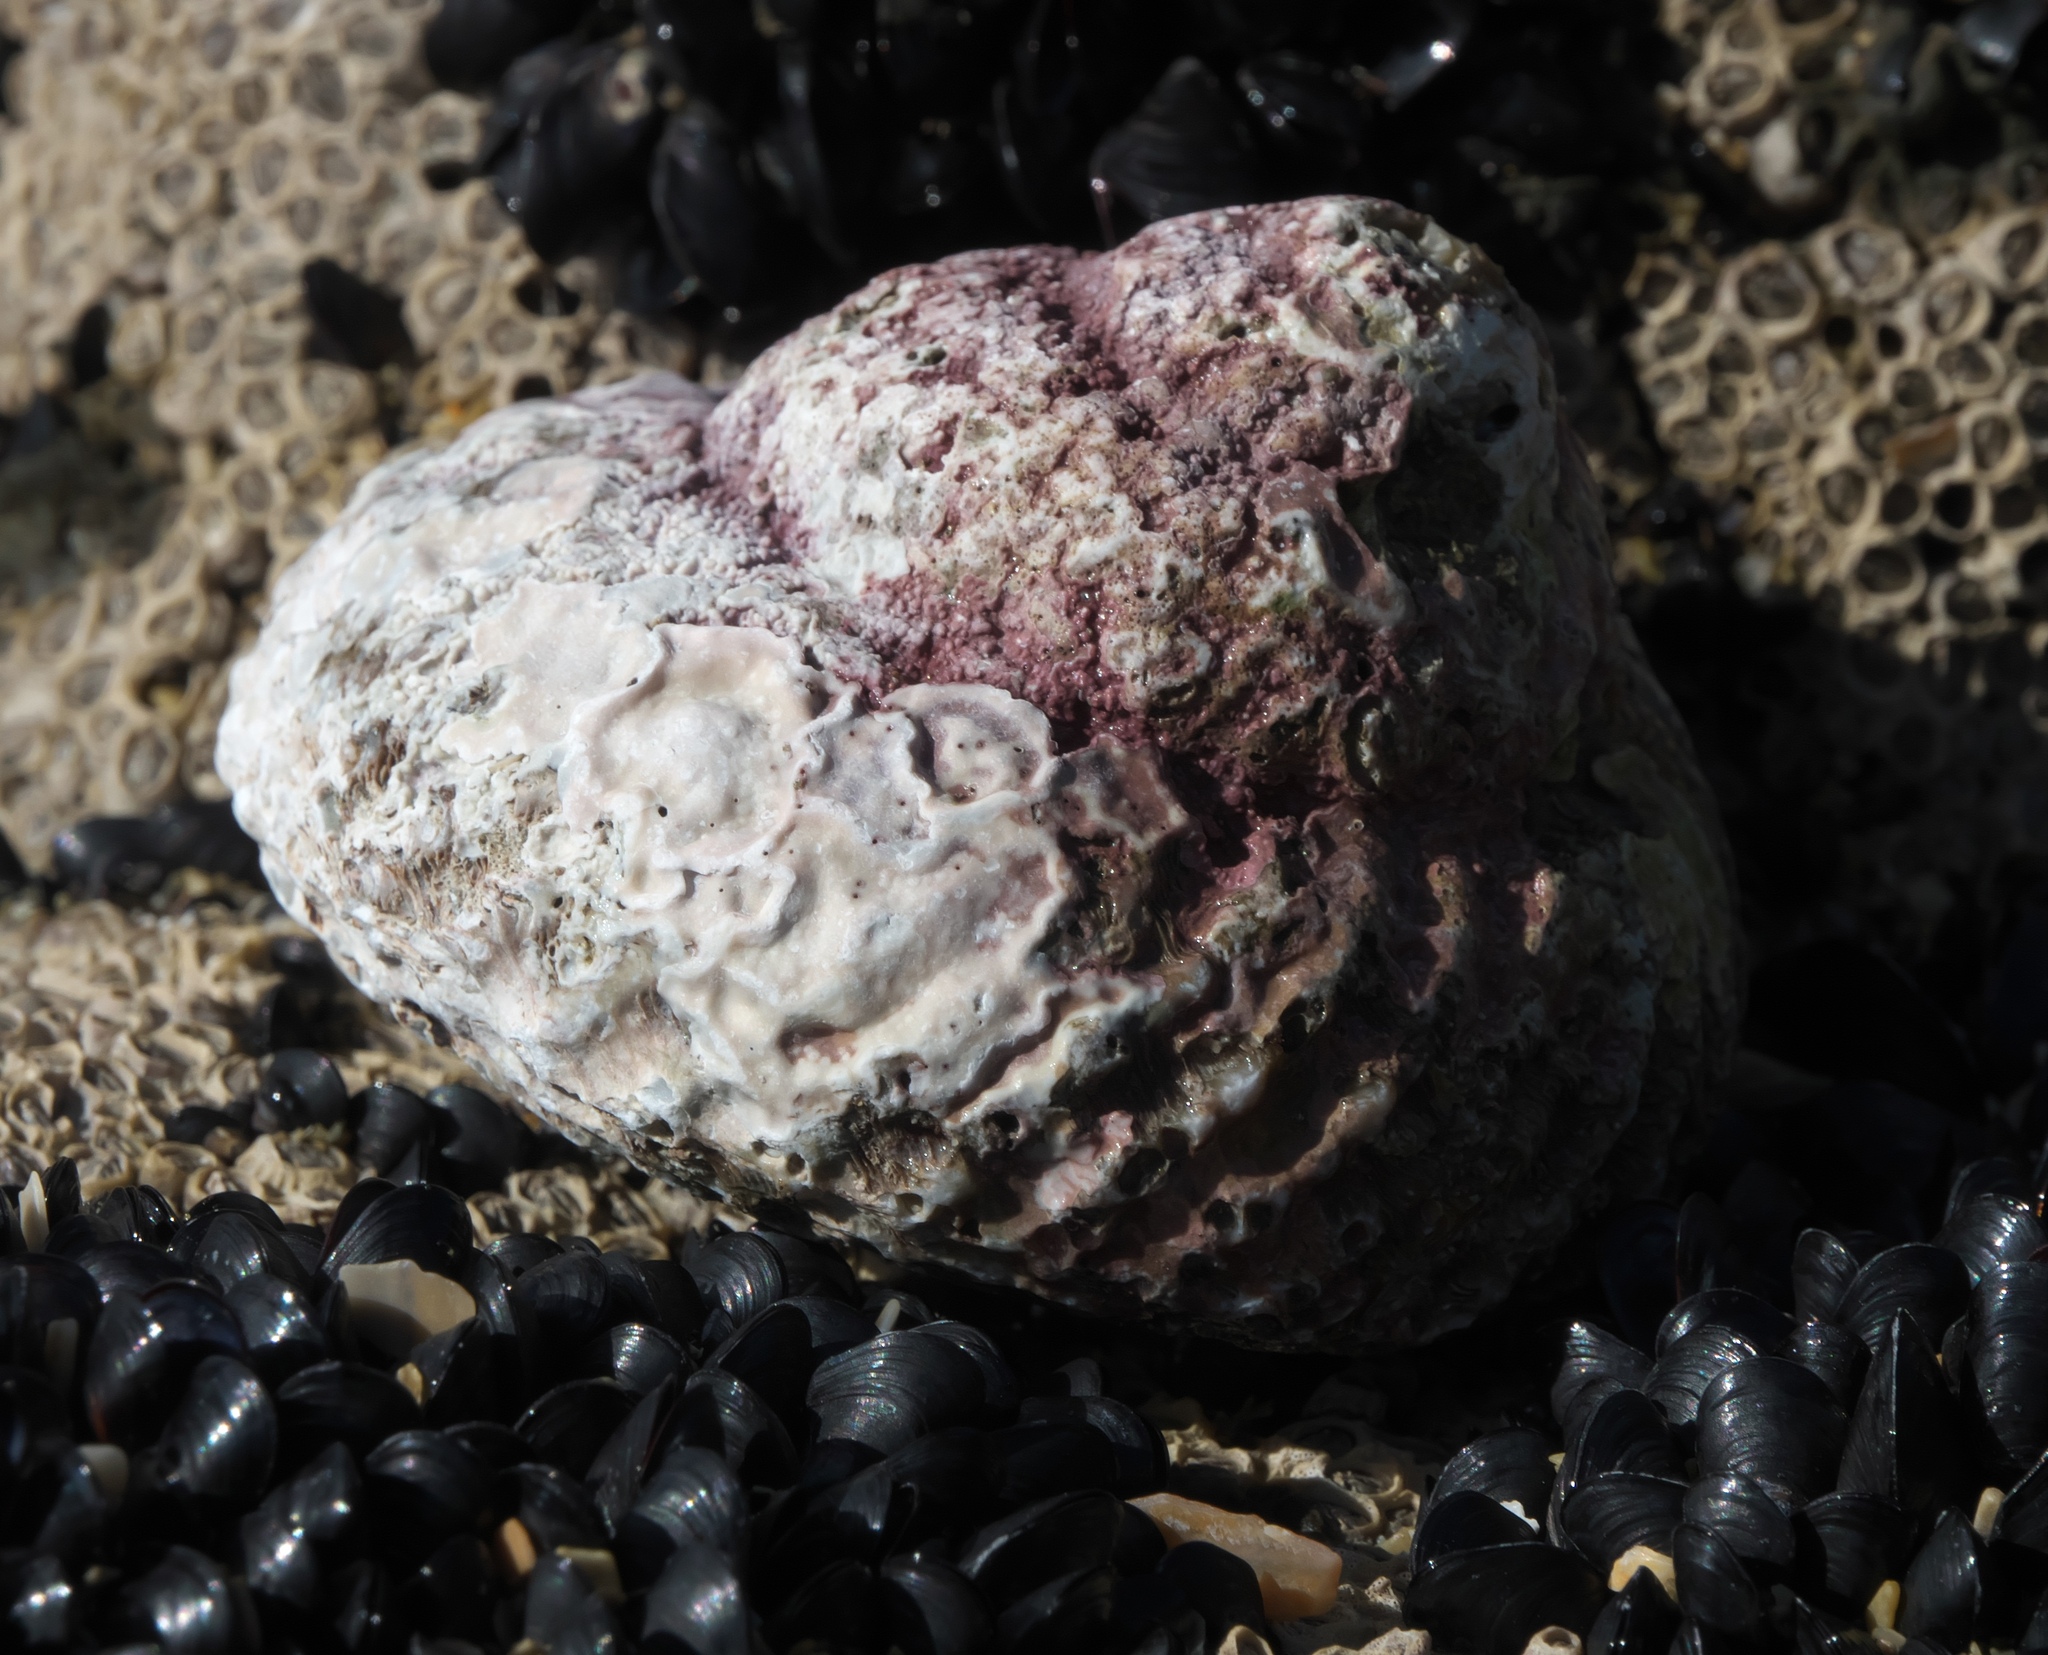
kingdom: Animalia
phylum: Mollusca
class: Gastropoda
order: Trochida
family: Turbinidae
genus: Cookia
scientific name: Cookia sulcata
